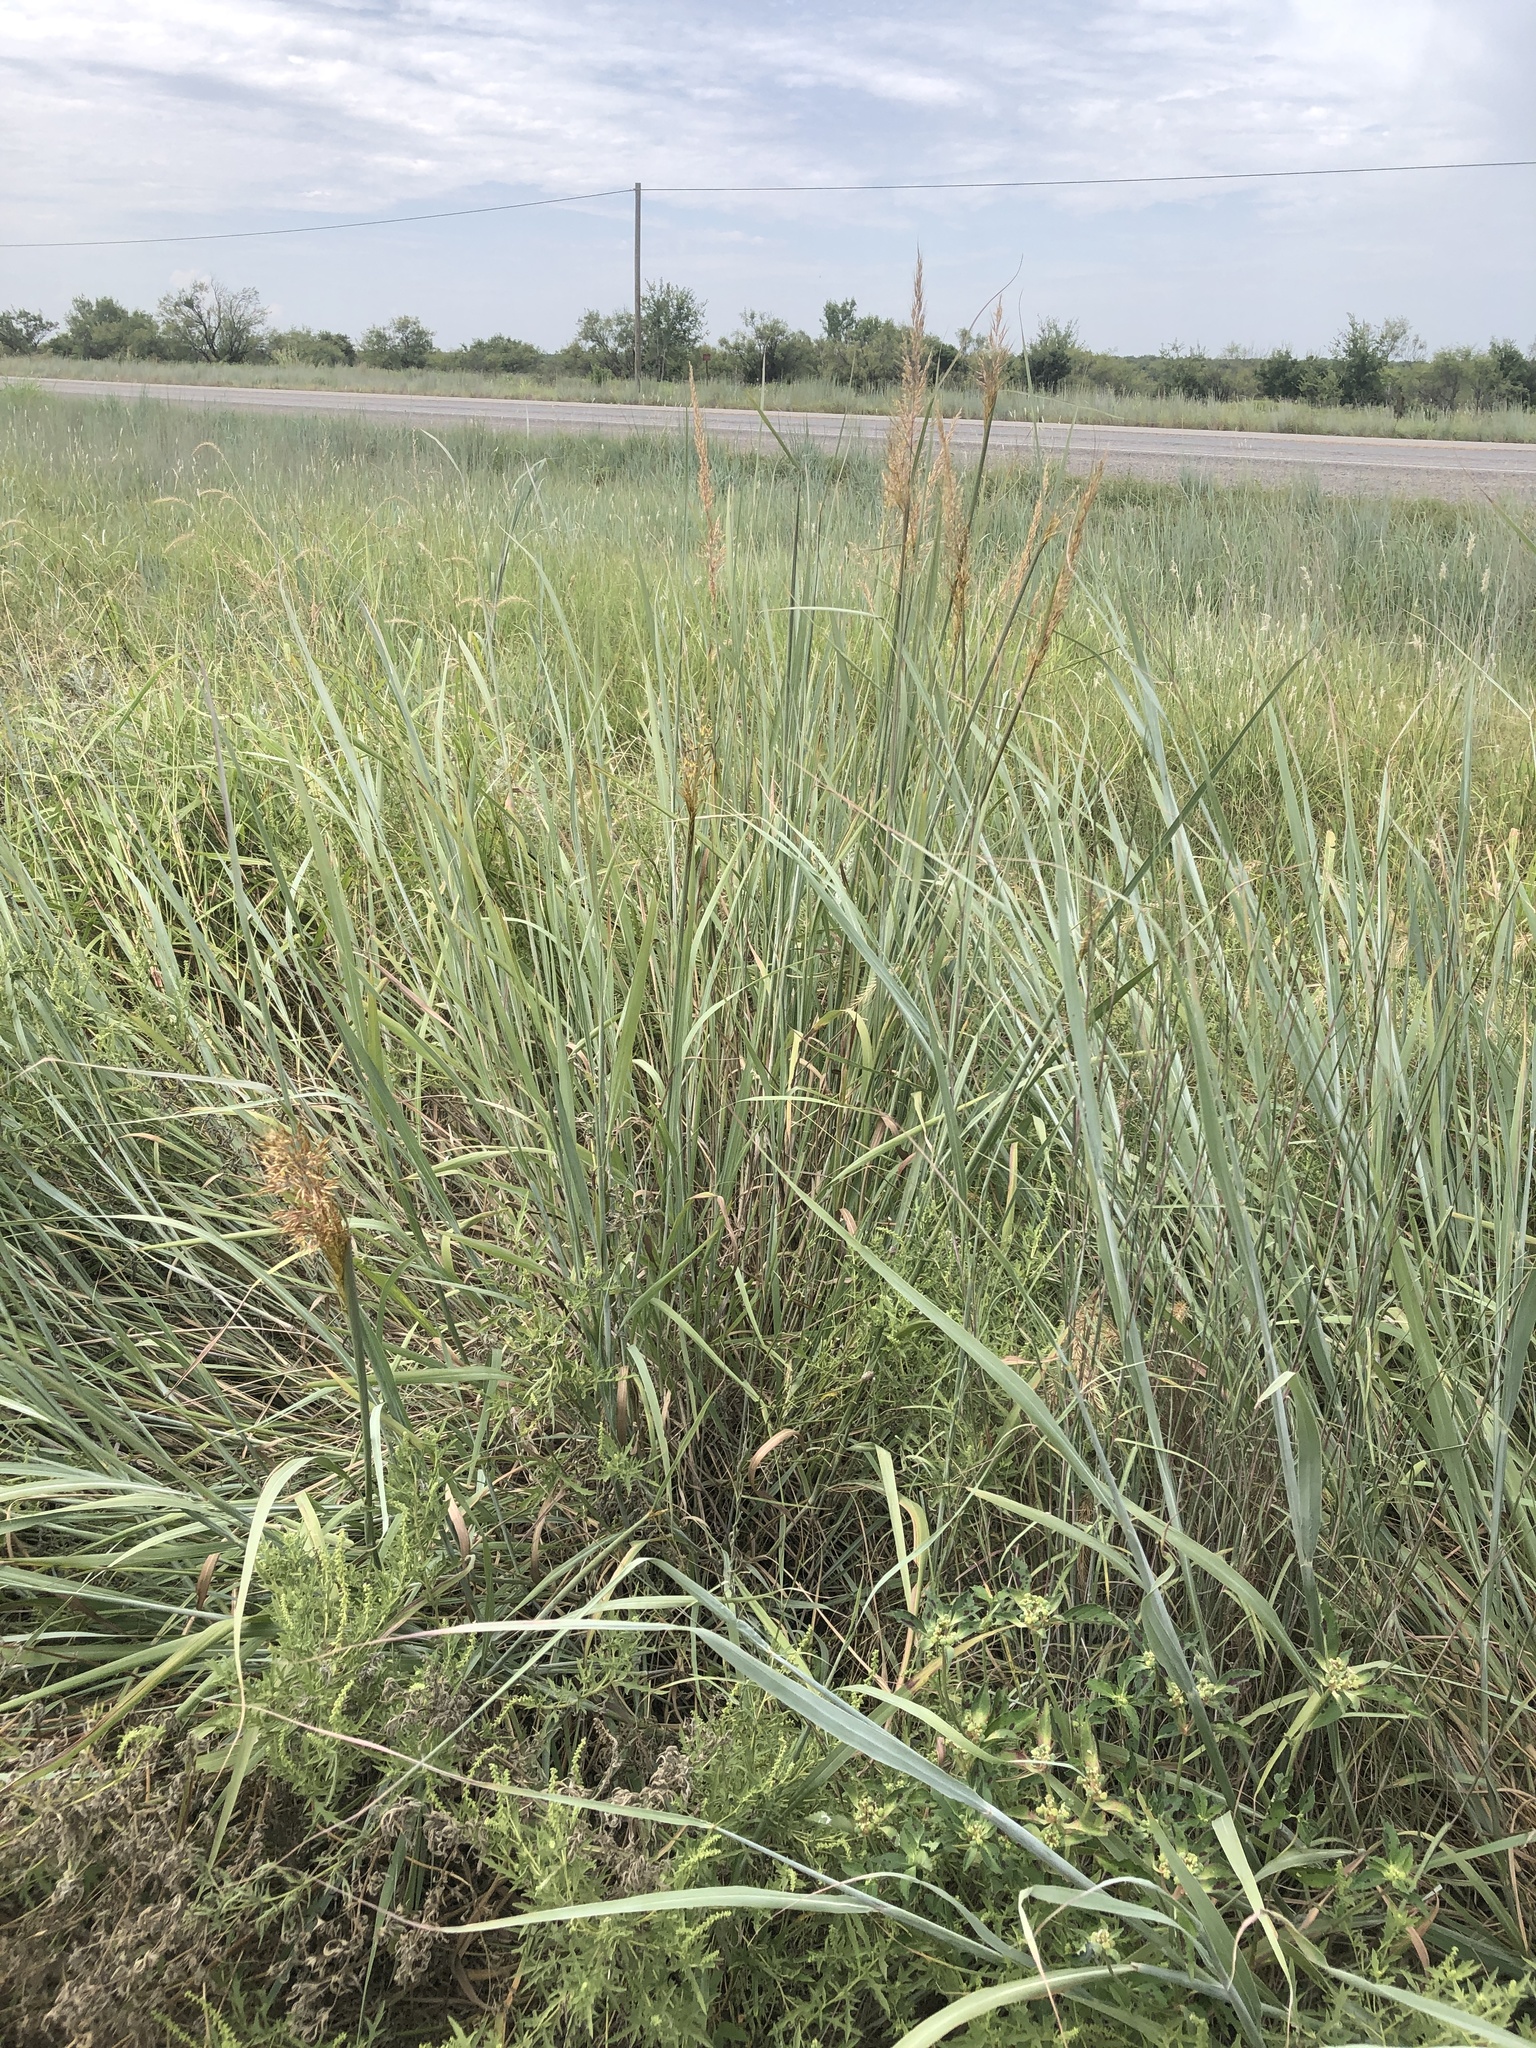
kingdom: Plantae
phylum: Tracheophyta
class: Liliopsida
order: Poales
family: Poaceae
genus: Sorghastrum
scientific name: Sorghastrum nutans
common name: Indian grass
